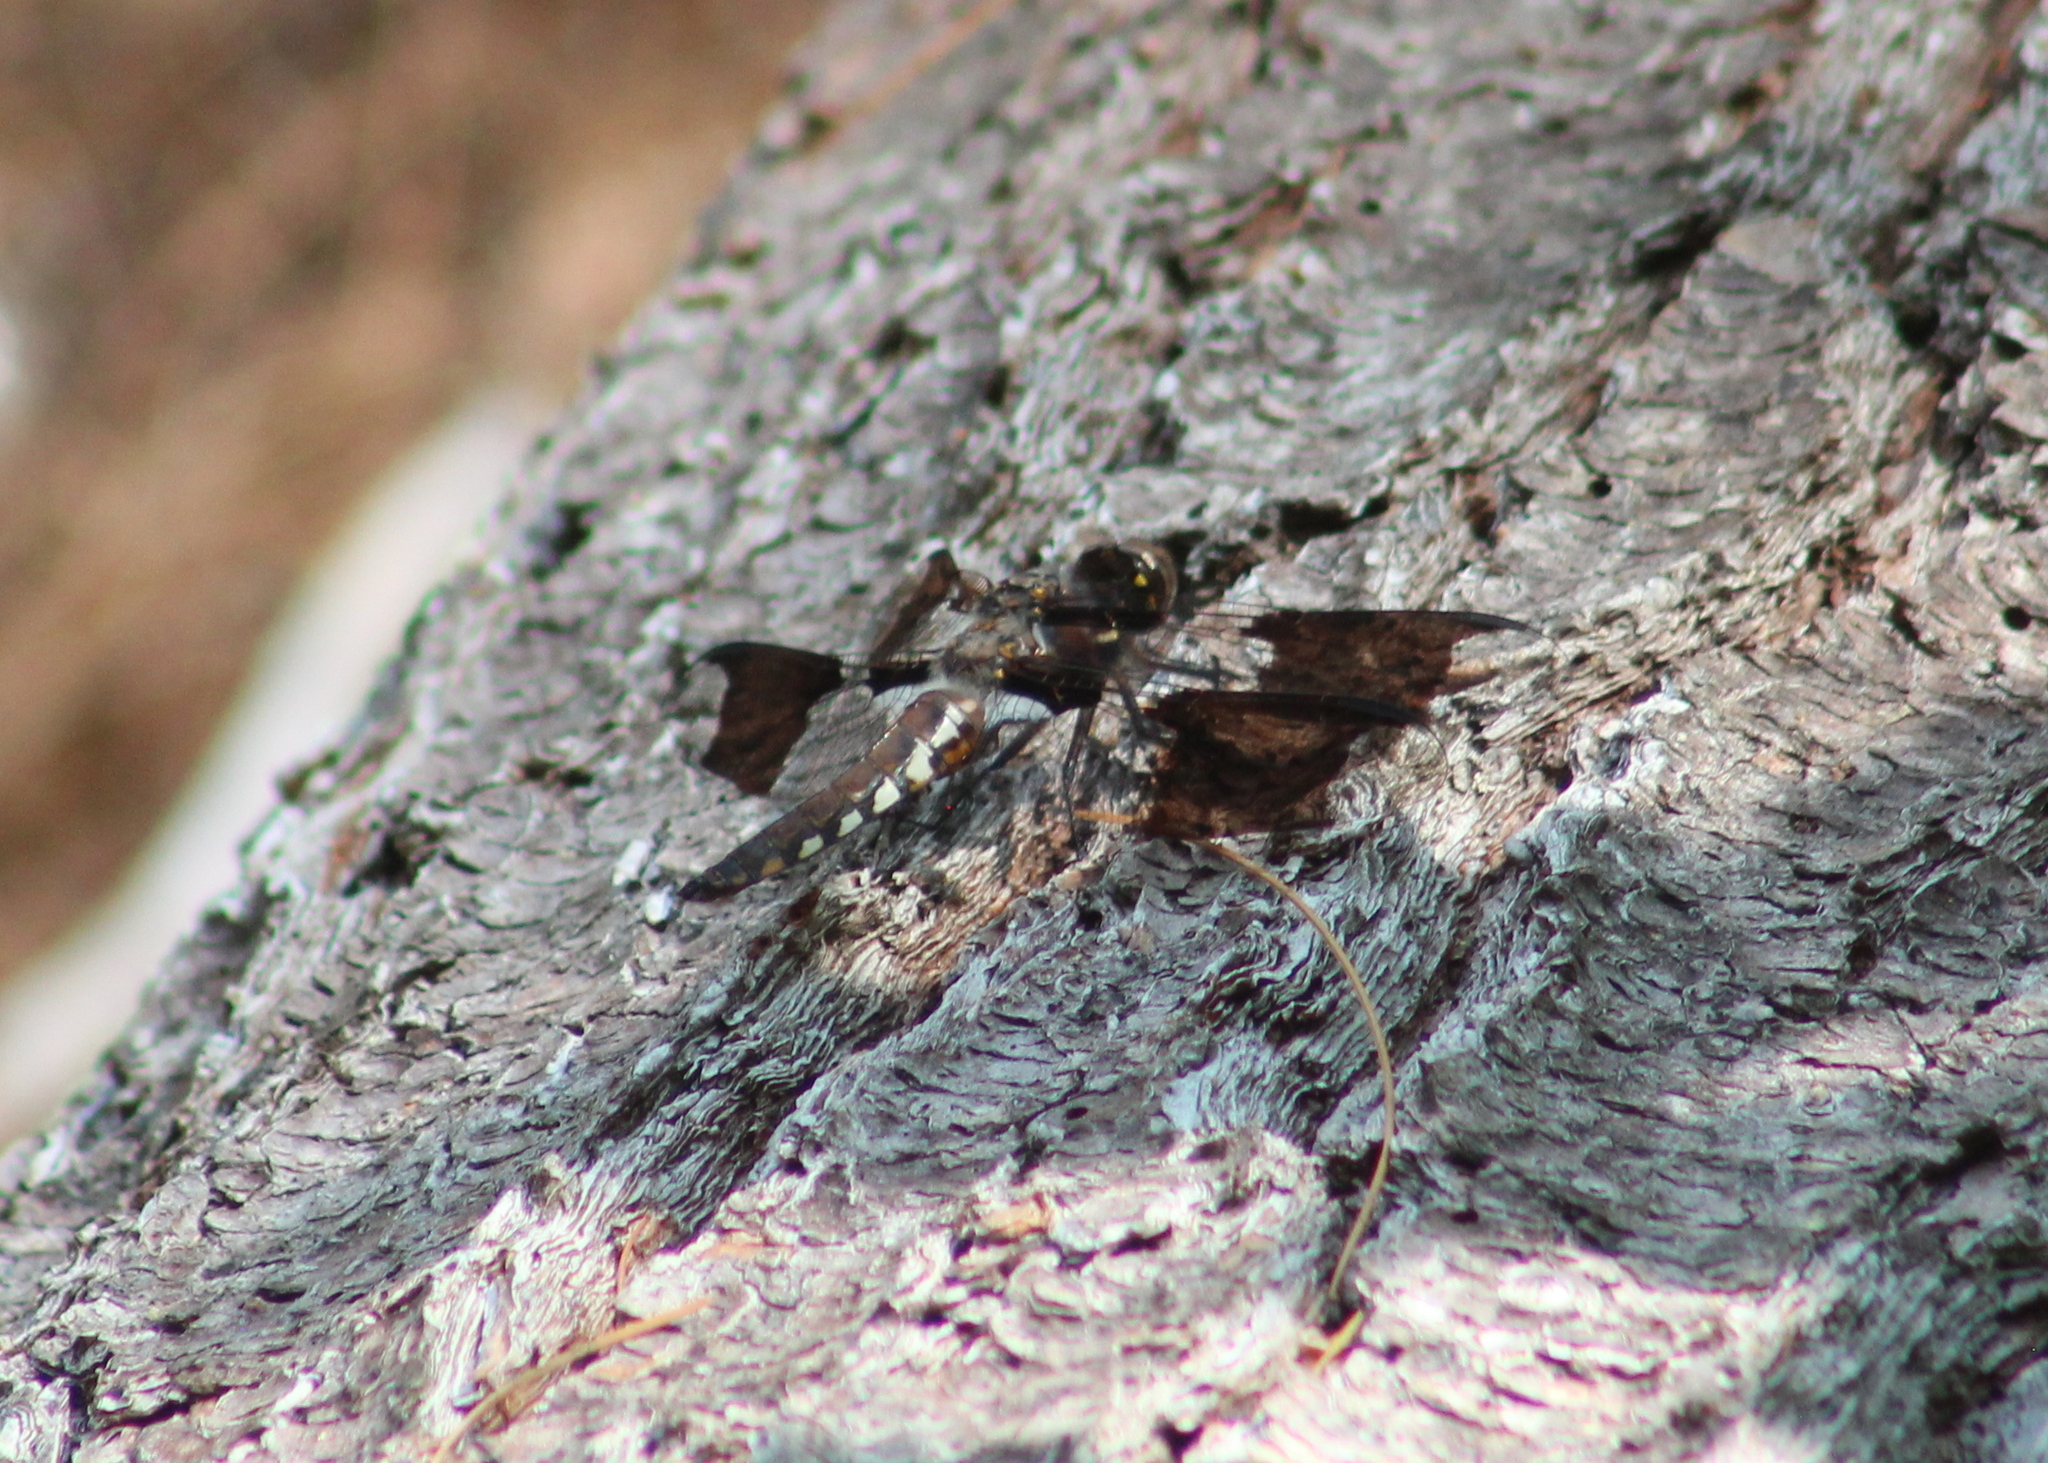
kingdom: Animalia
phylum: Arthropoda
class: Insecta
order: Odonata
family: Libellulidae
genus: Plathemis
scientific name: Plathemis lydia
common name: Common whitetail
